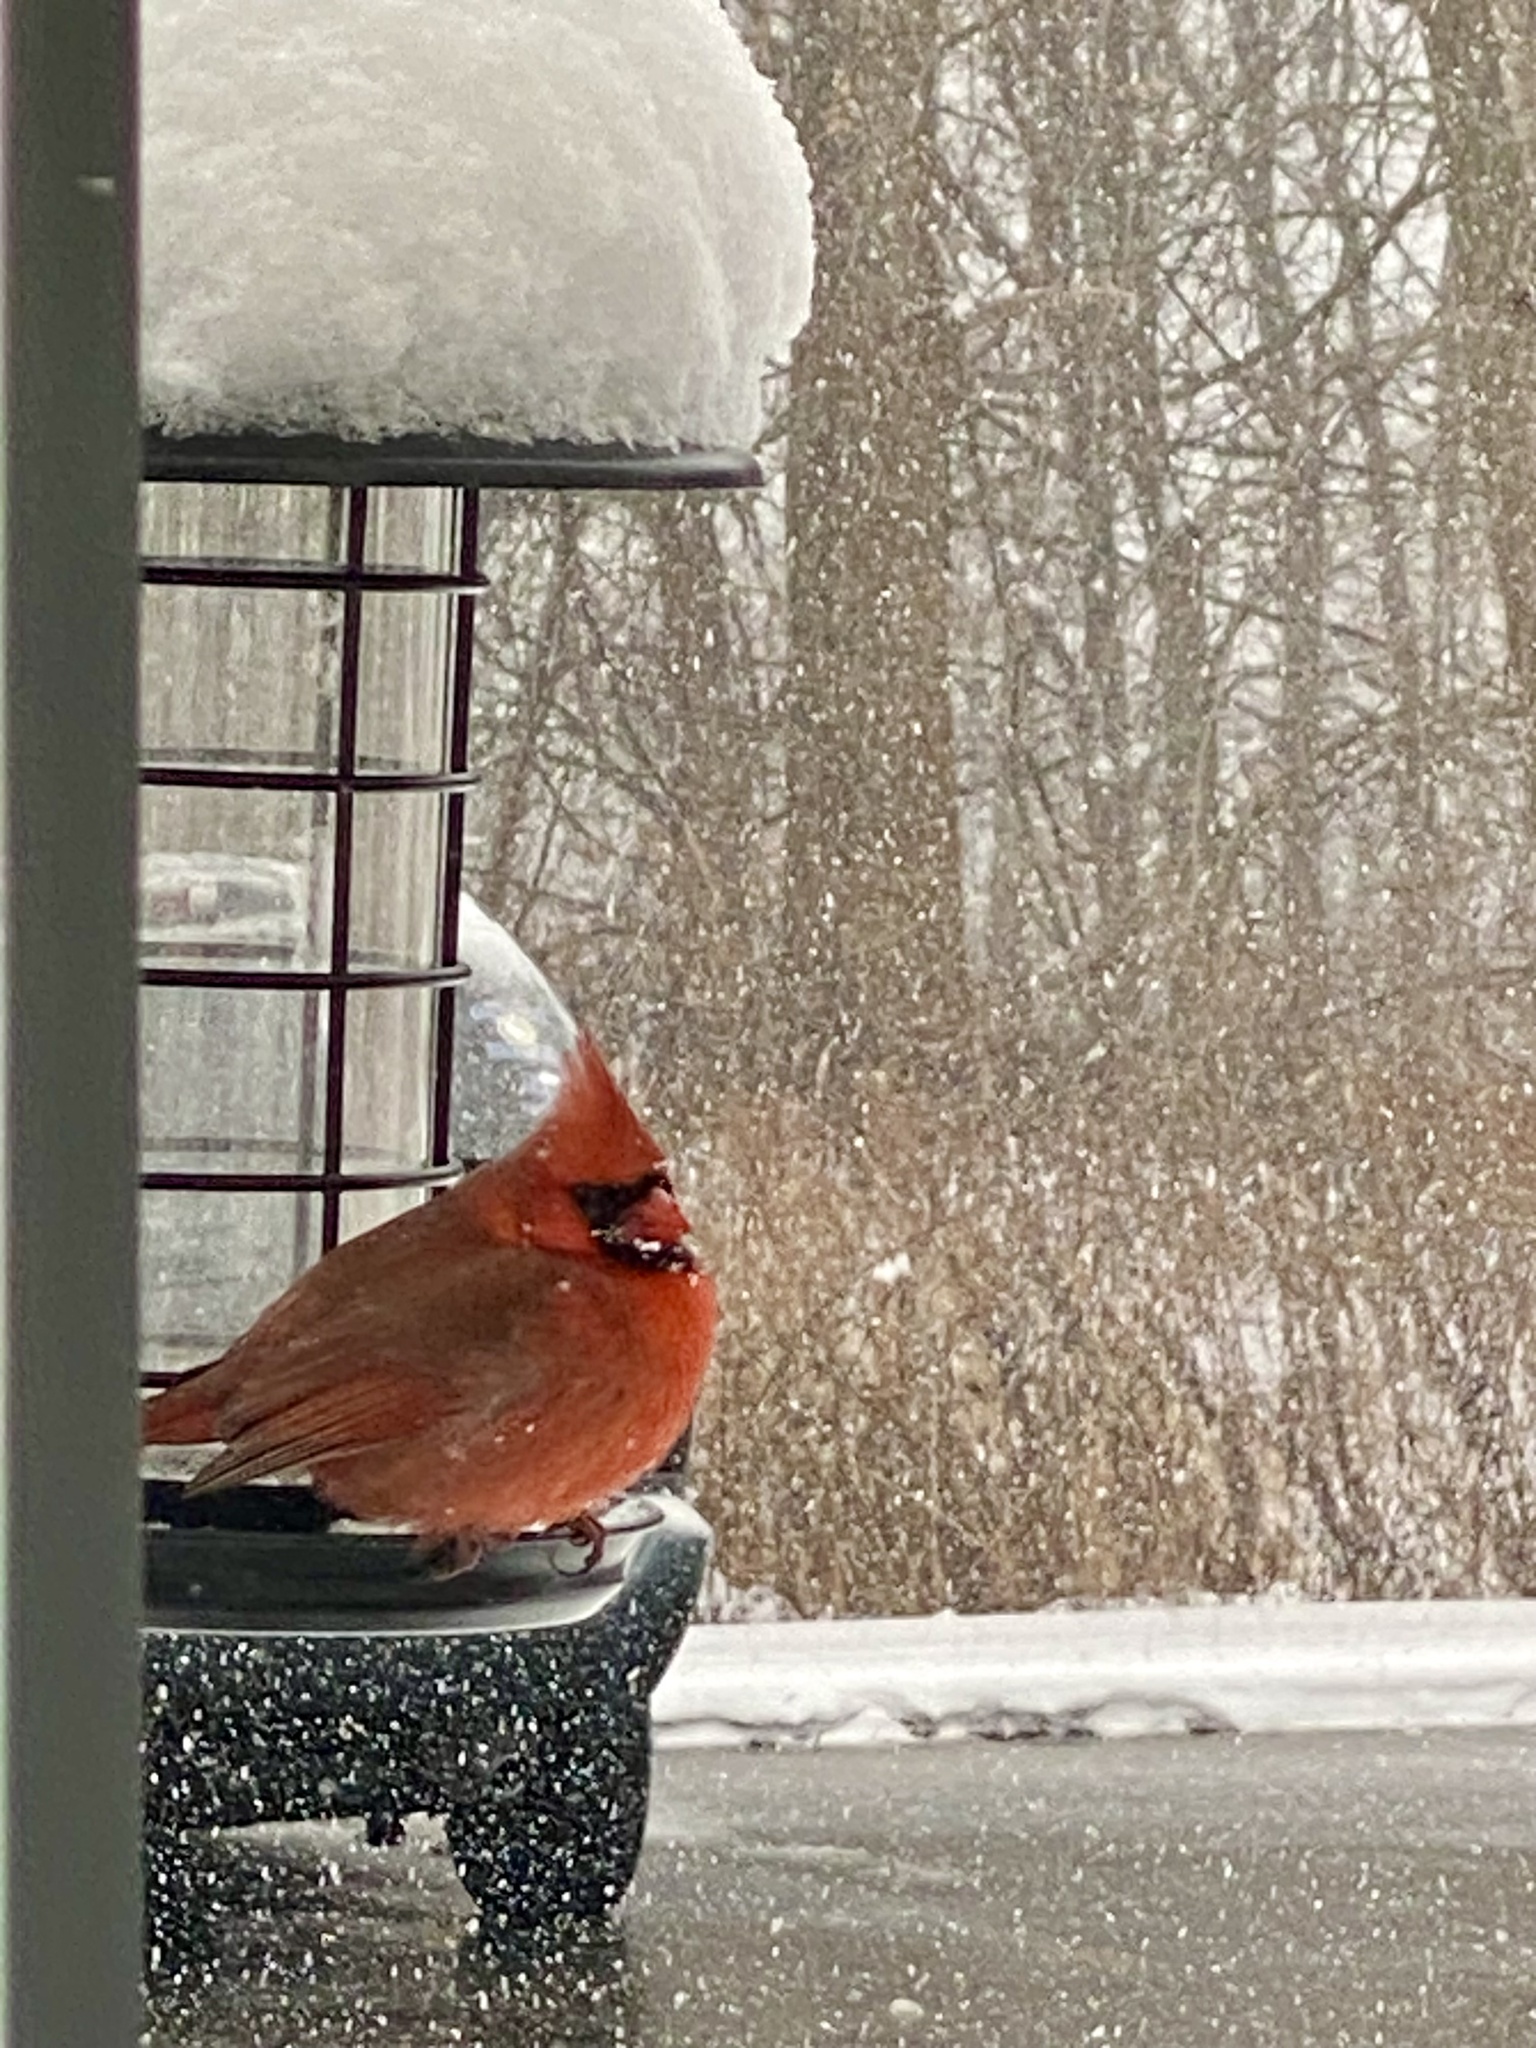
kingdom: Animalia
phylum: Chordata
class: Aves
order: Passeriformes
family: Cardinalidae
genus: Cardinalis
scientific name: Cardinalis cardinalis
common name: Northern cardinal
